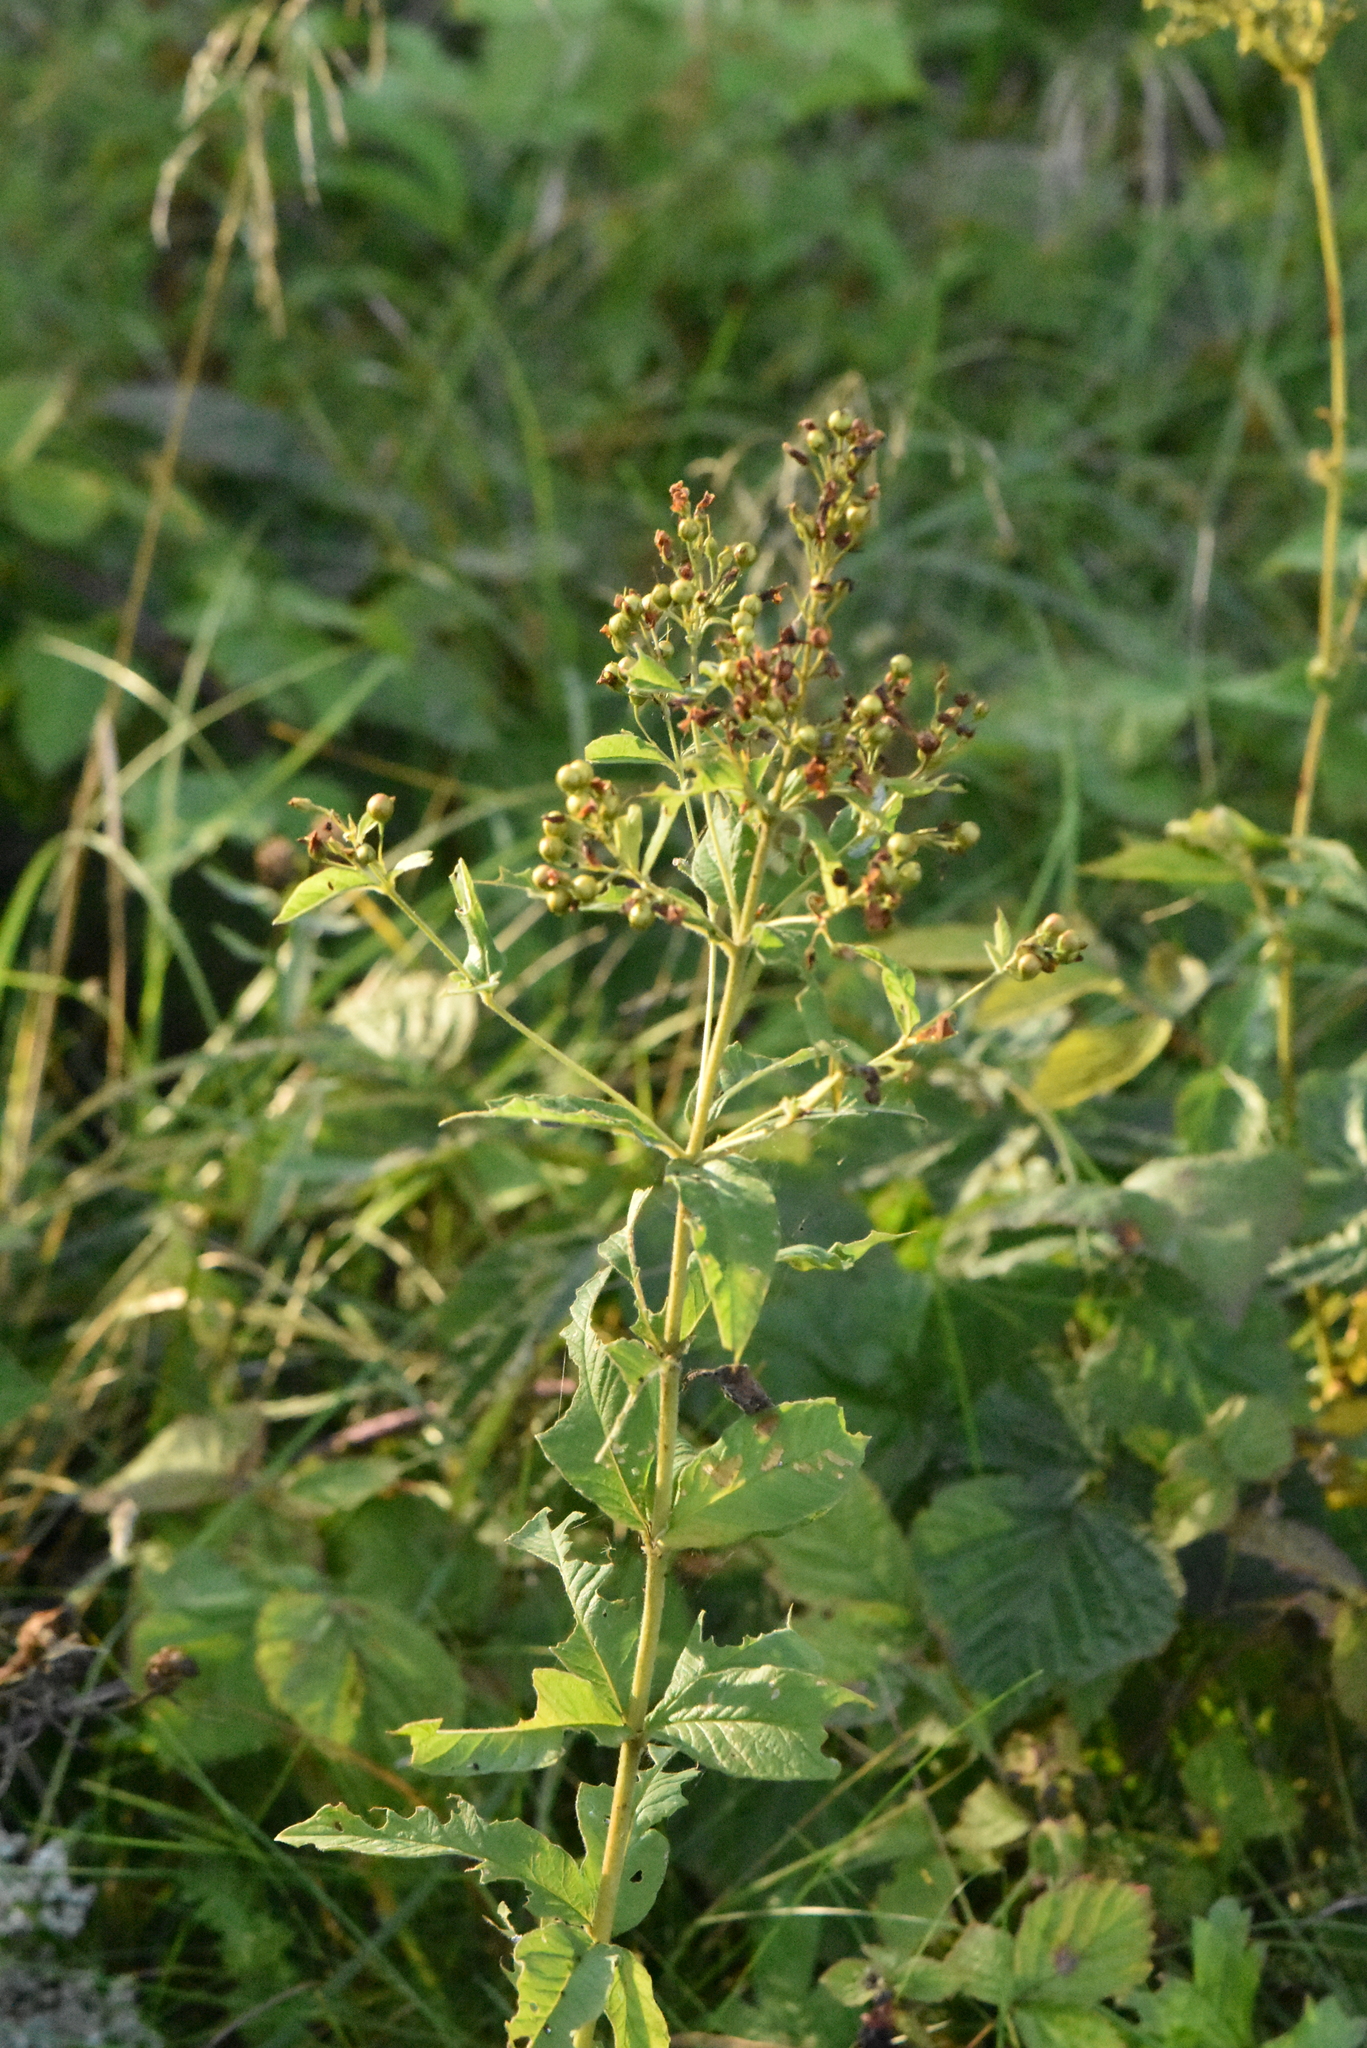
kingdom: Plantae
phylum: Tracheophyta
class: Magnoliopsida
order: Lamiales
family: Scrophulariaceae
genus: Scrophularia
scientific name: Scrophularia nodosa
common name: Common figwort
